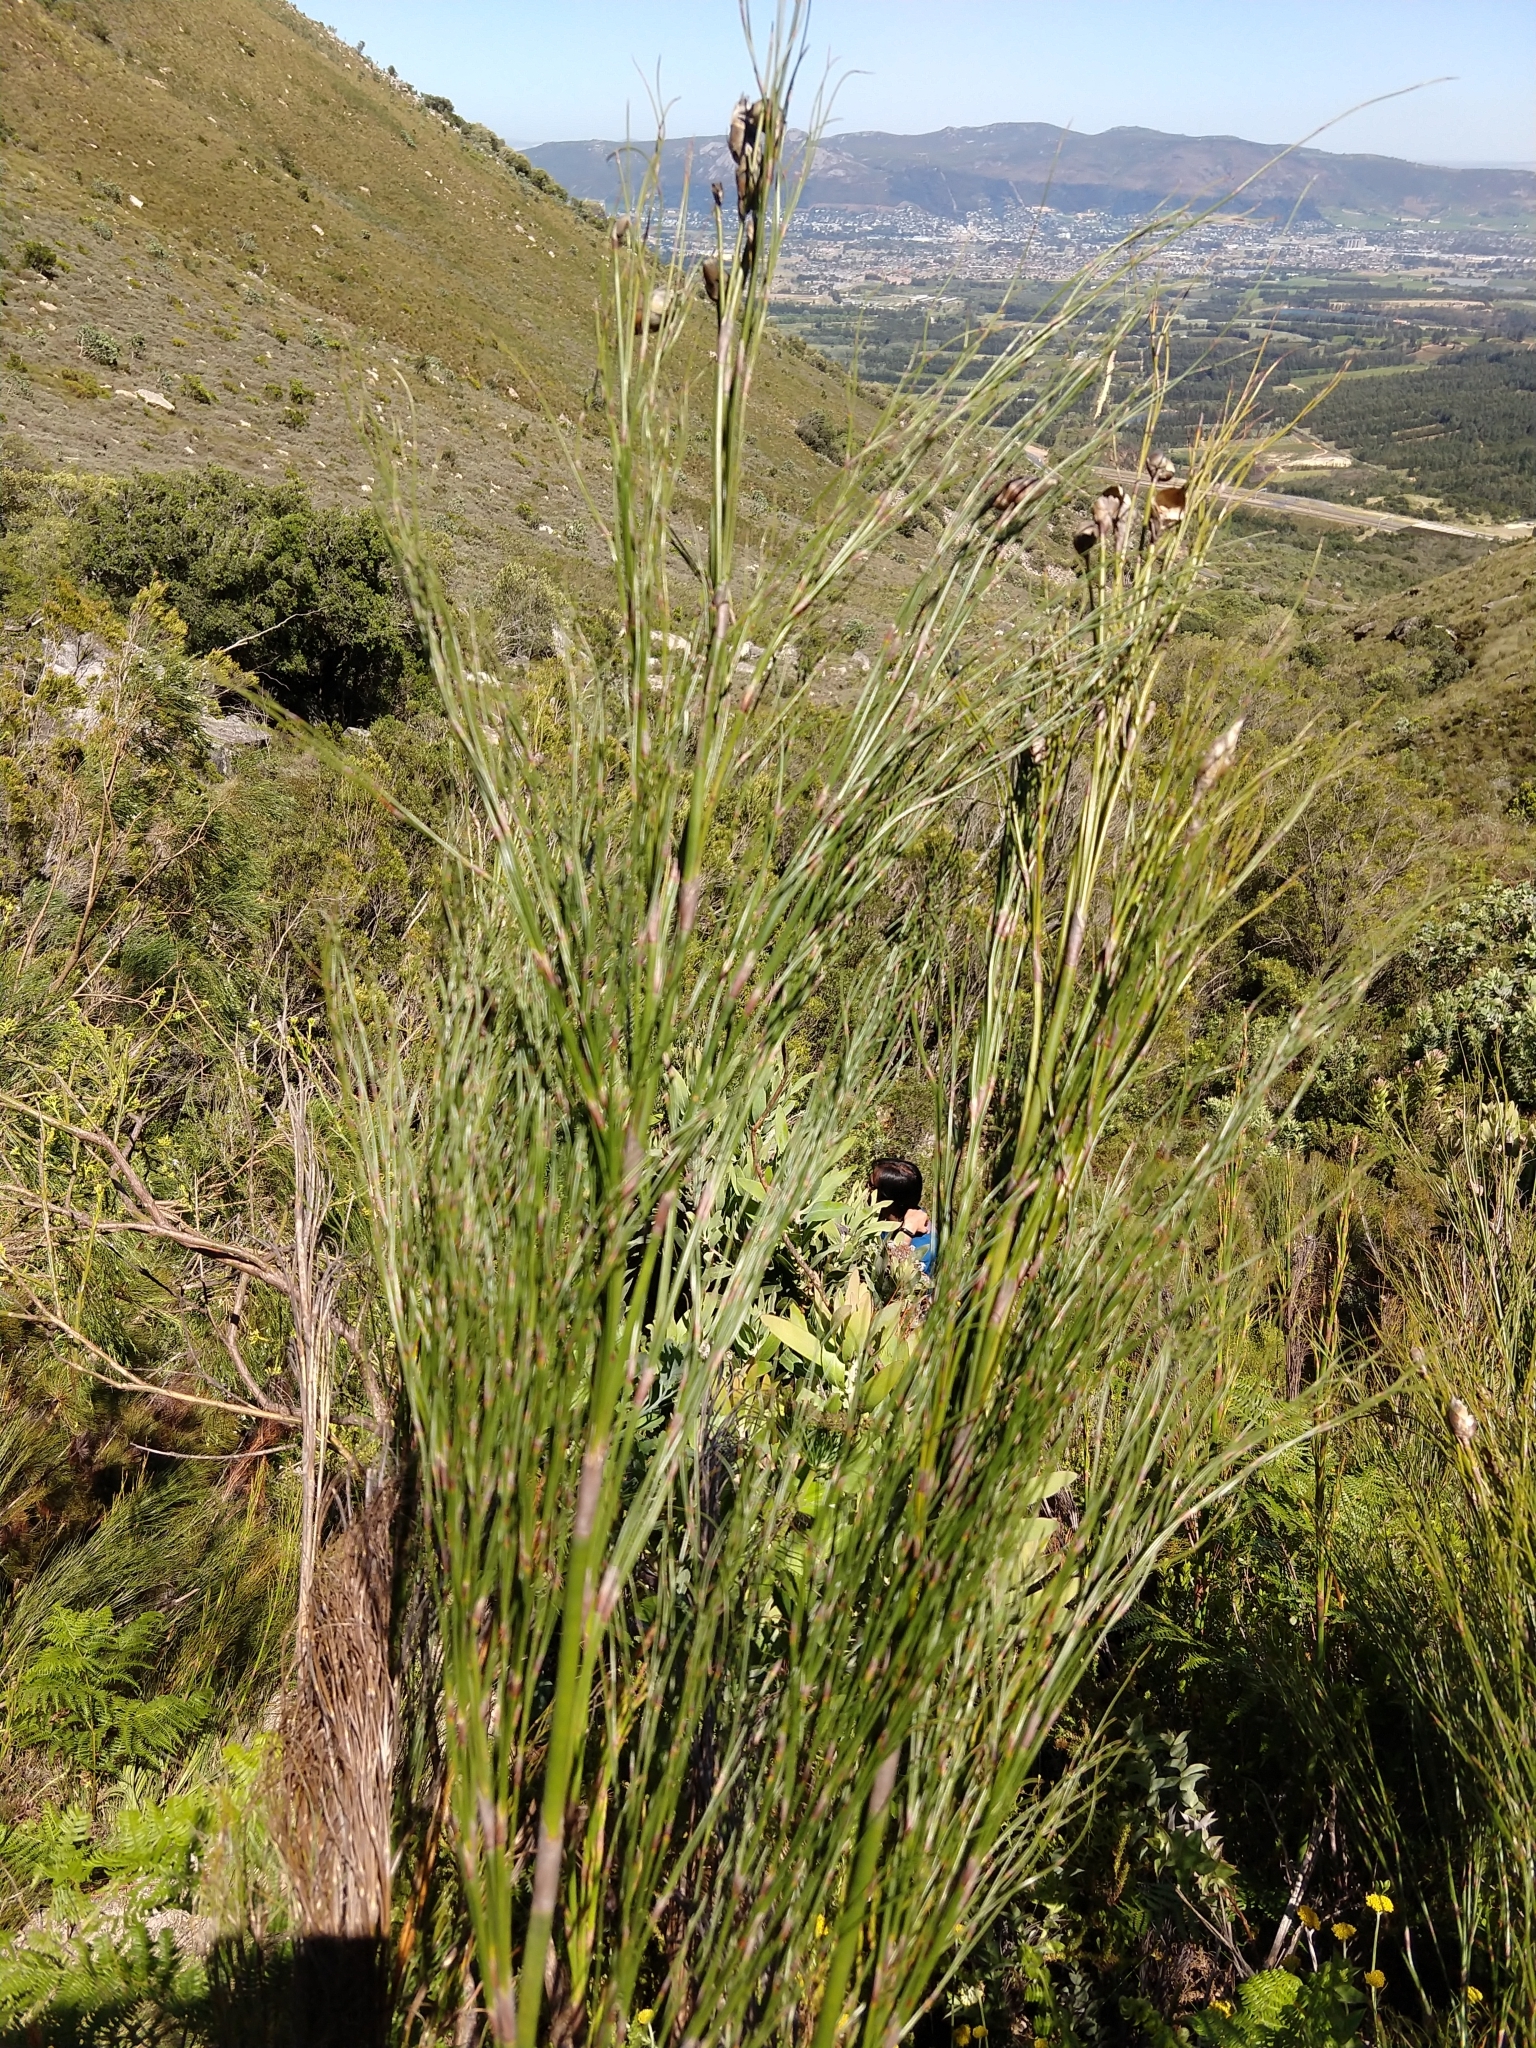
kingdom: Plantae
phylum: Tracheophyta
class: Liliopsida
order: Poales
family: Restionaceae
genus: Cannomois
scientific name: Cannomois virgata
